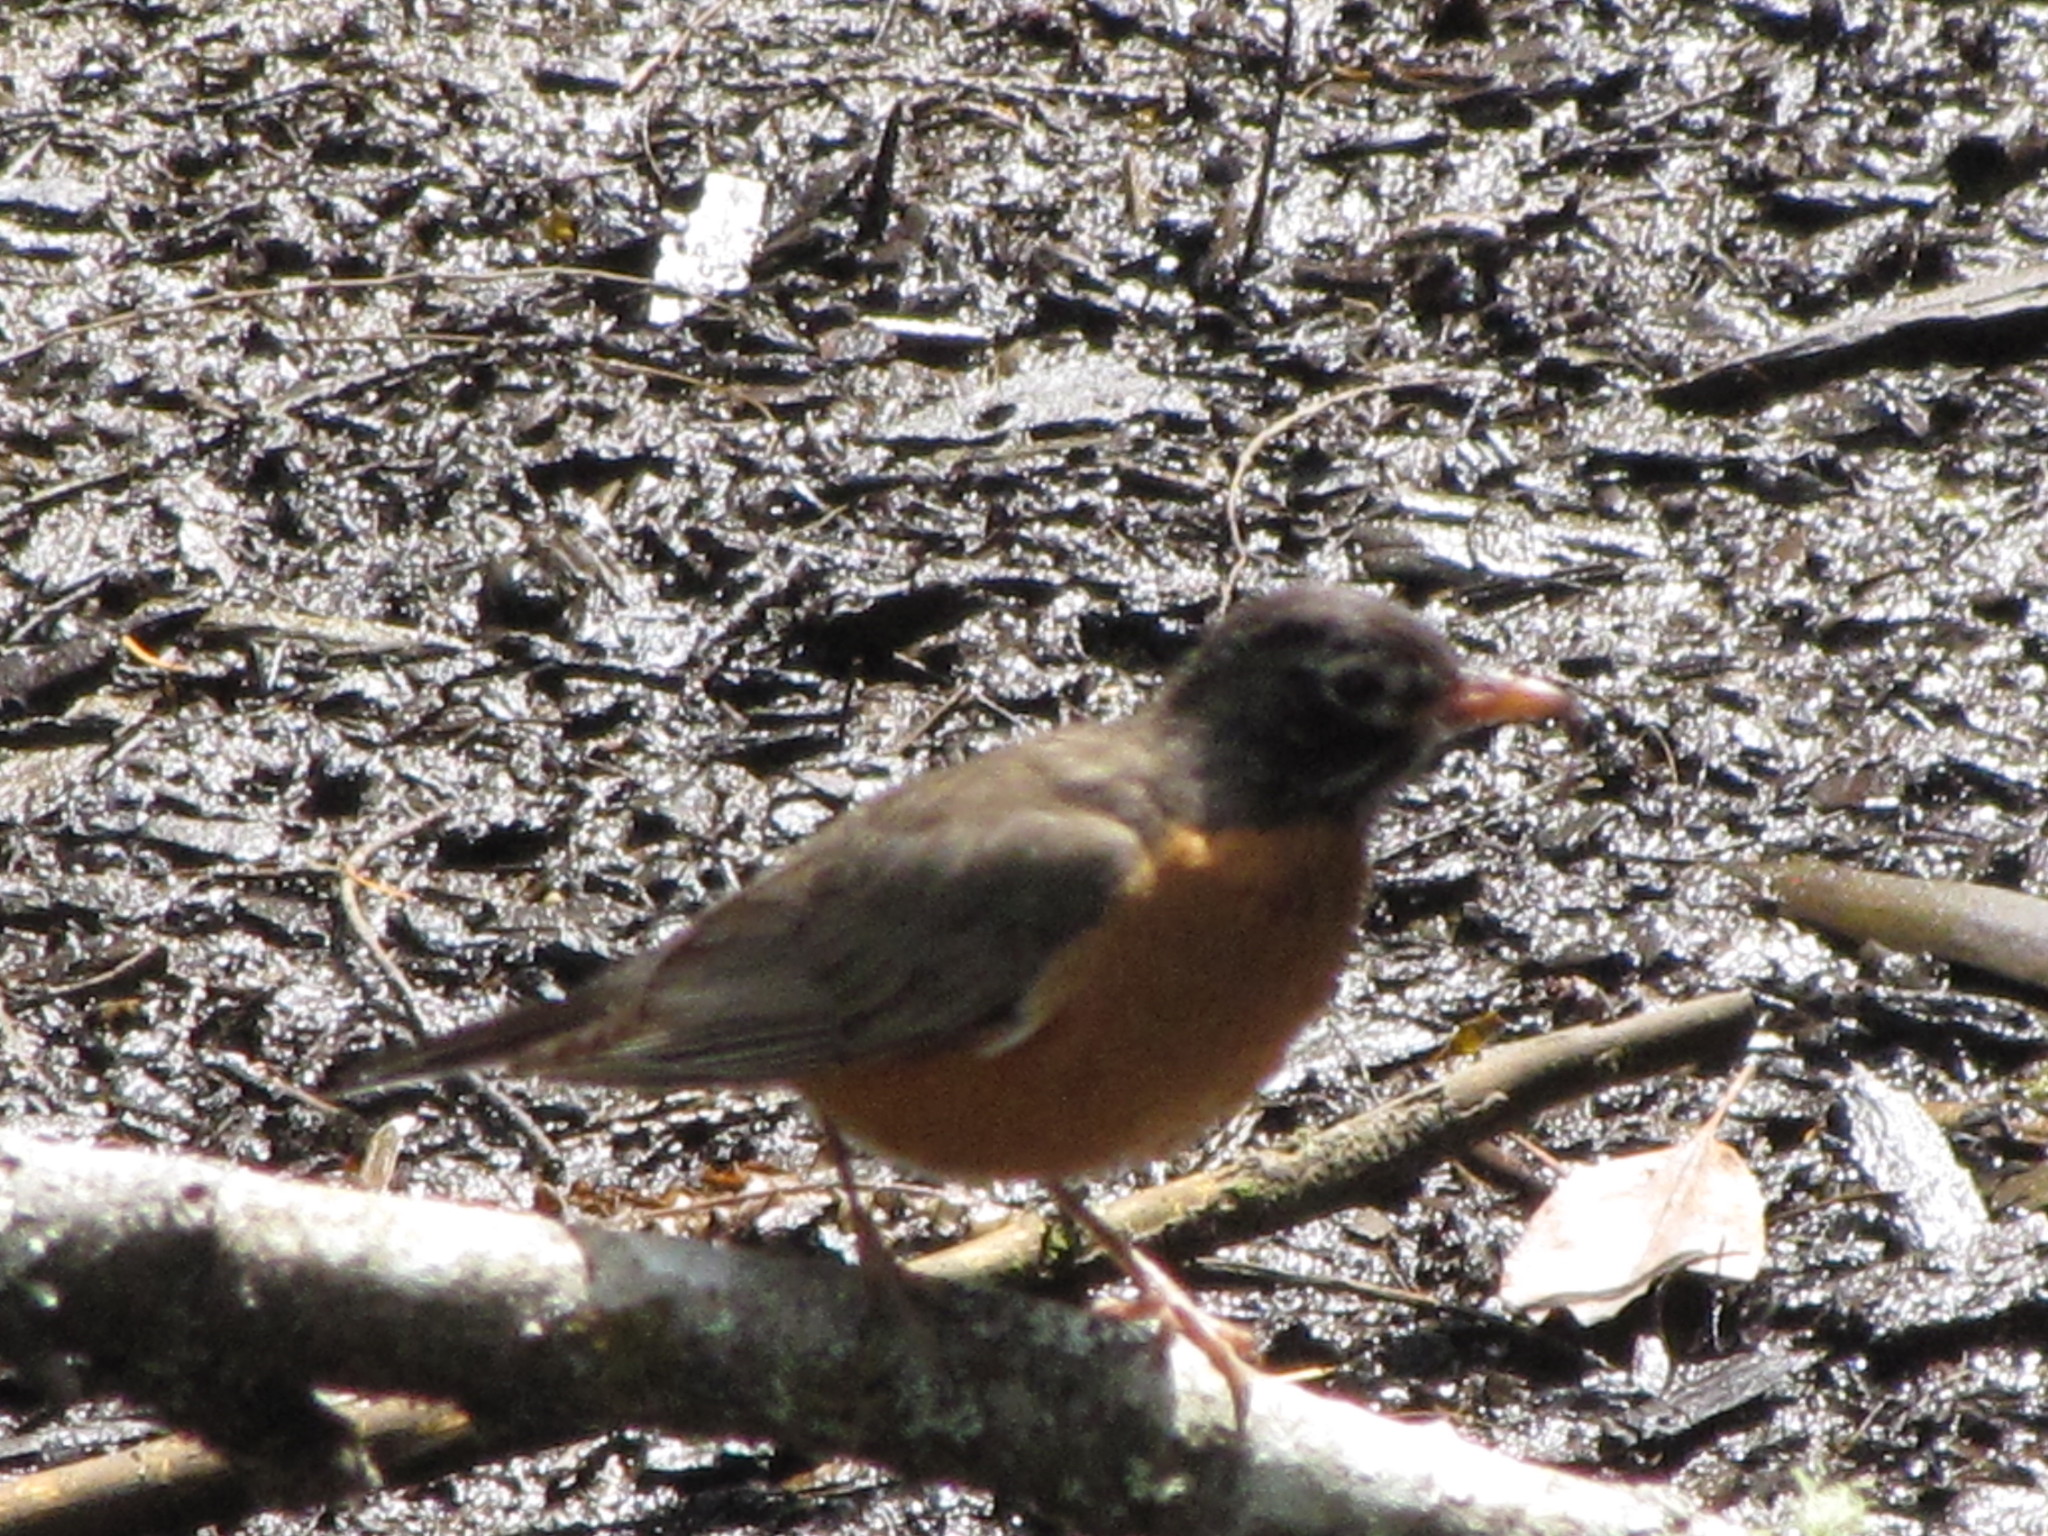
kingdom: Animalia
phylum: Chordata
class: Aves
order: Passeriformes
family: Turdidae
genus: Turdus
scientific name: Turdus migratorius
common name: American robin
